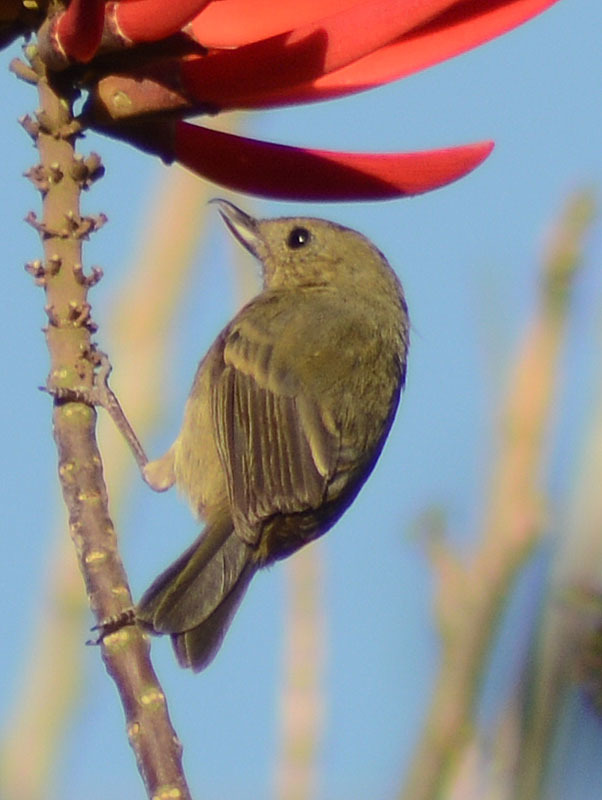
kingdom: Animalia
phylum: Chordata
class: Aves
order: Passeriformes
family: Thraupidae
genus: Diglossa
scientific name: Diglossa baritula
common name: Cinnamon-bellied flowerpiercer
